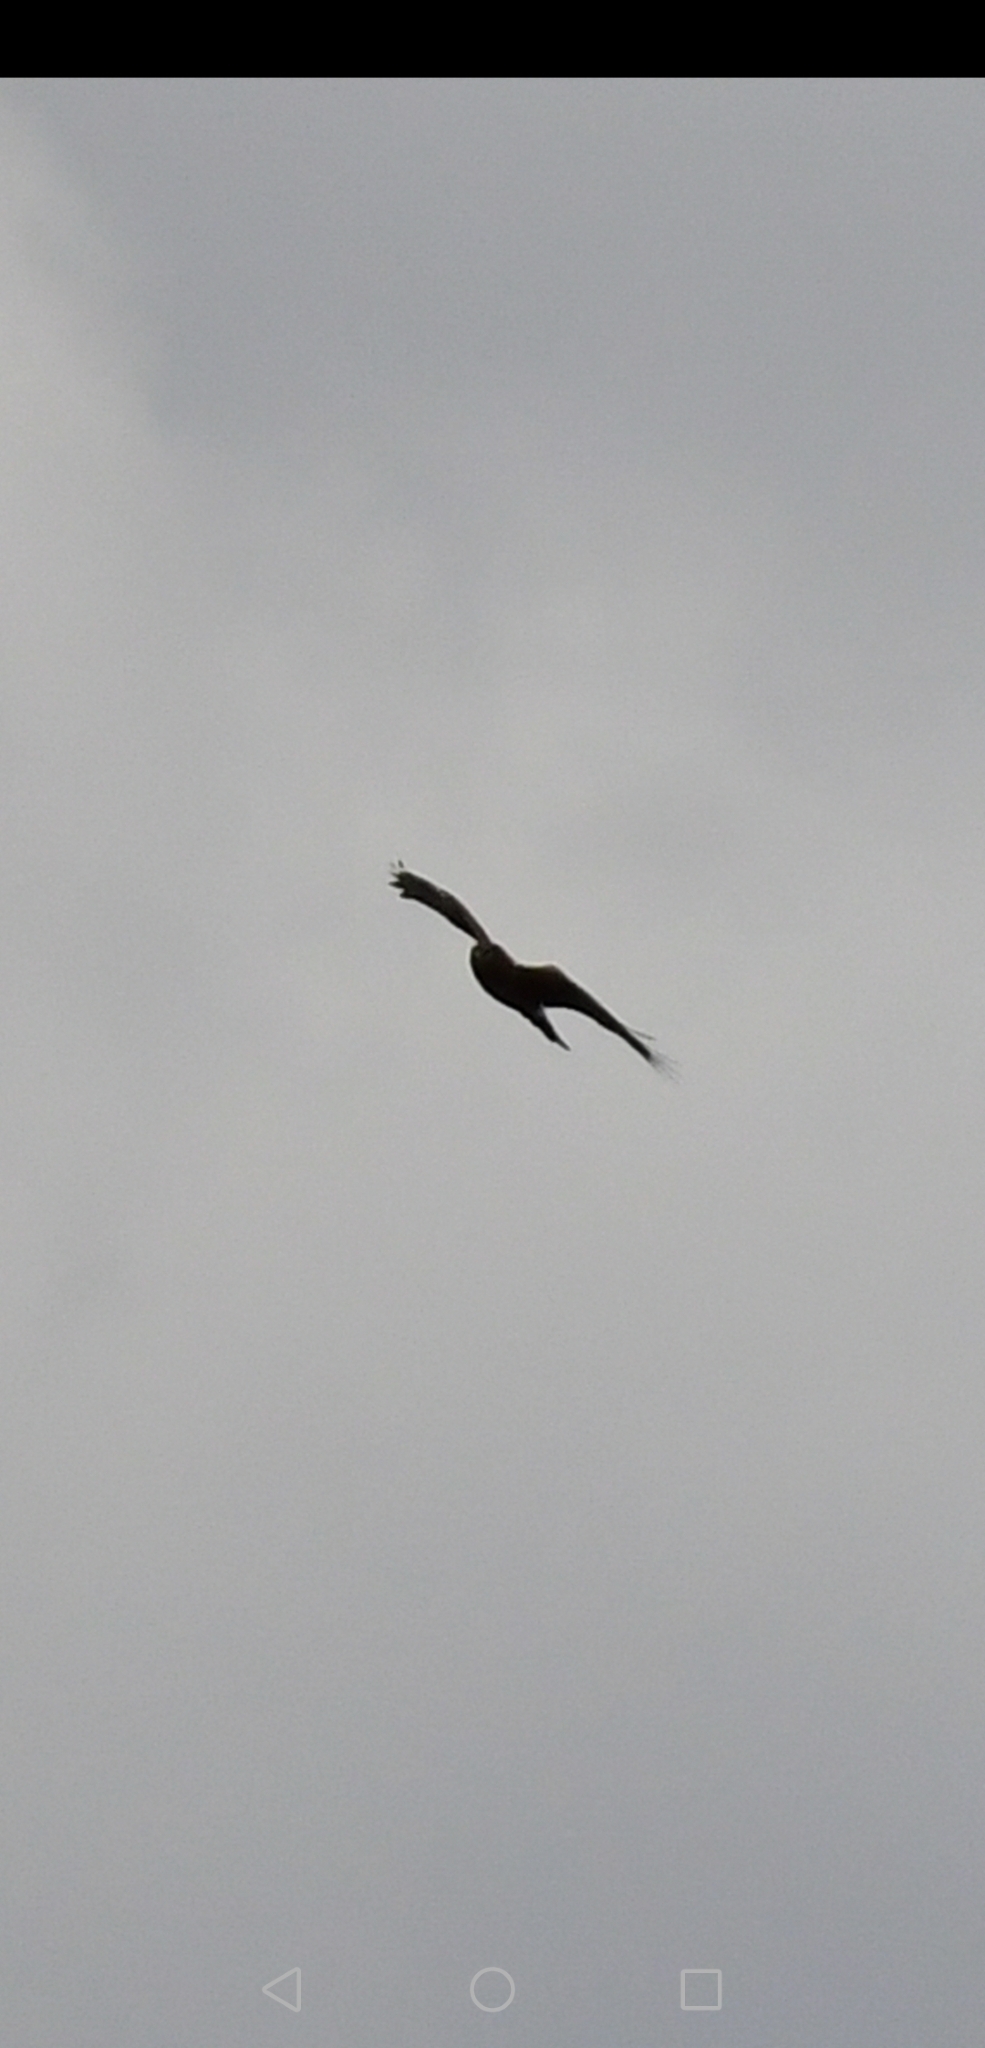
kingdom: Animalia
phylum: Chordata
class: Aves
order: Accipitriformes
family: Accipitridae
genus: Circus
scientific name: Circus cyaneus
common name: Hen harrier
